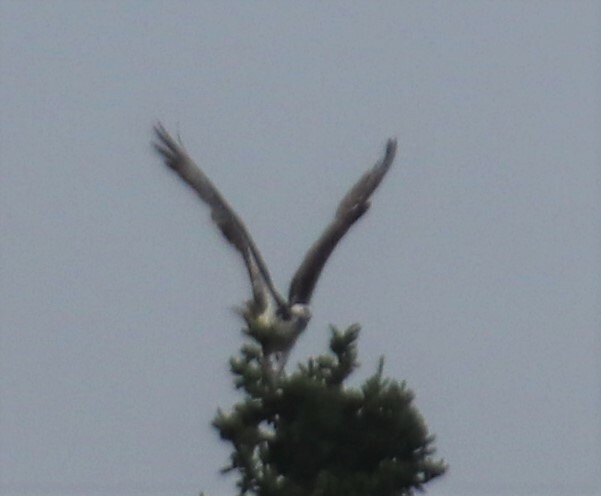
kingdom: Animalia
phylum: Chordata
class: Aves
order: Accipitriformes
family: Pandionidae
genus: Pandion
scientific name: Pandion haliaetus
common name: Osprey
